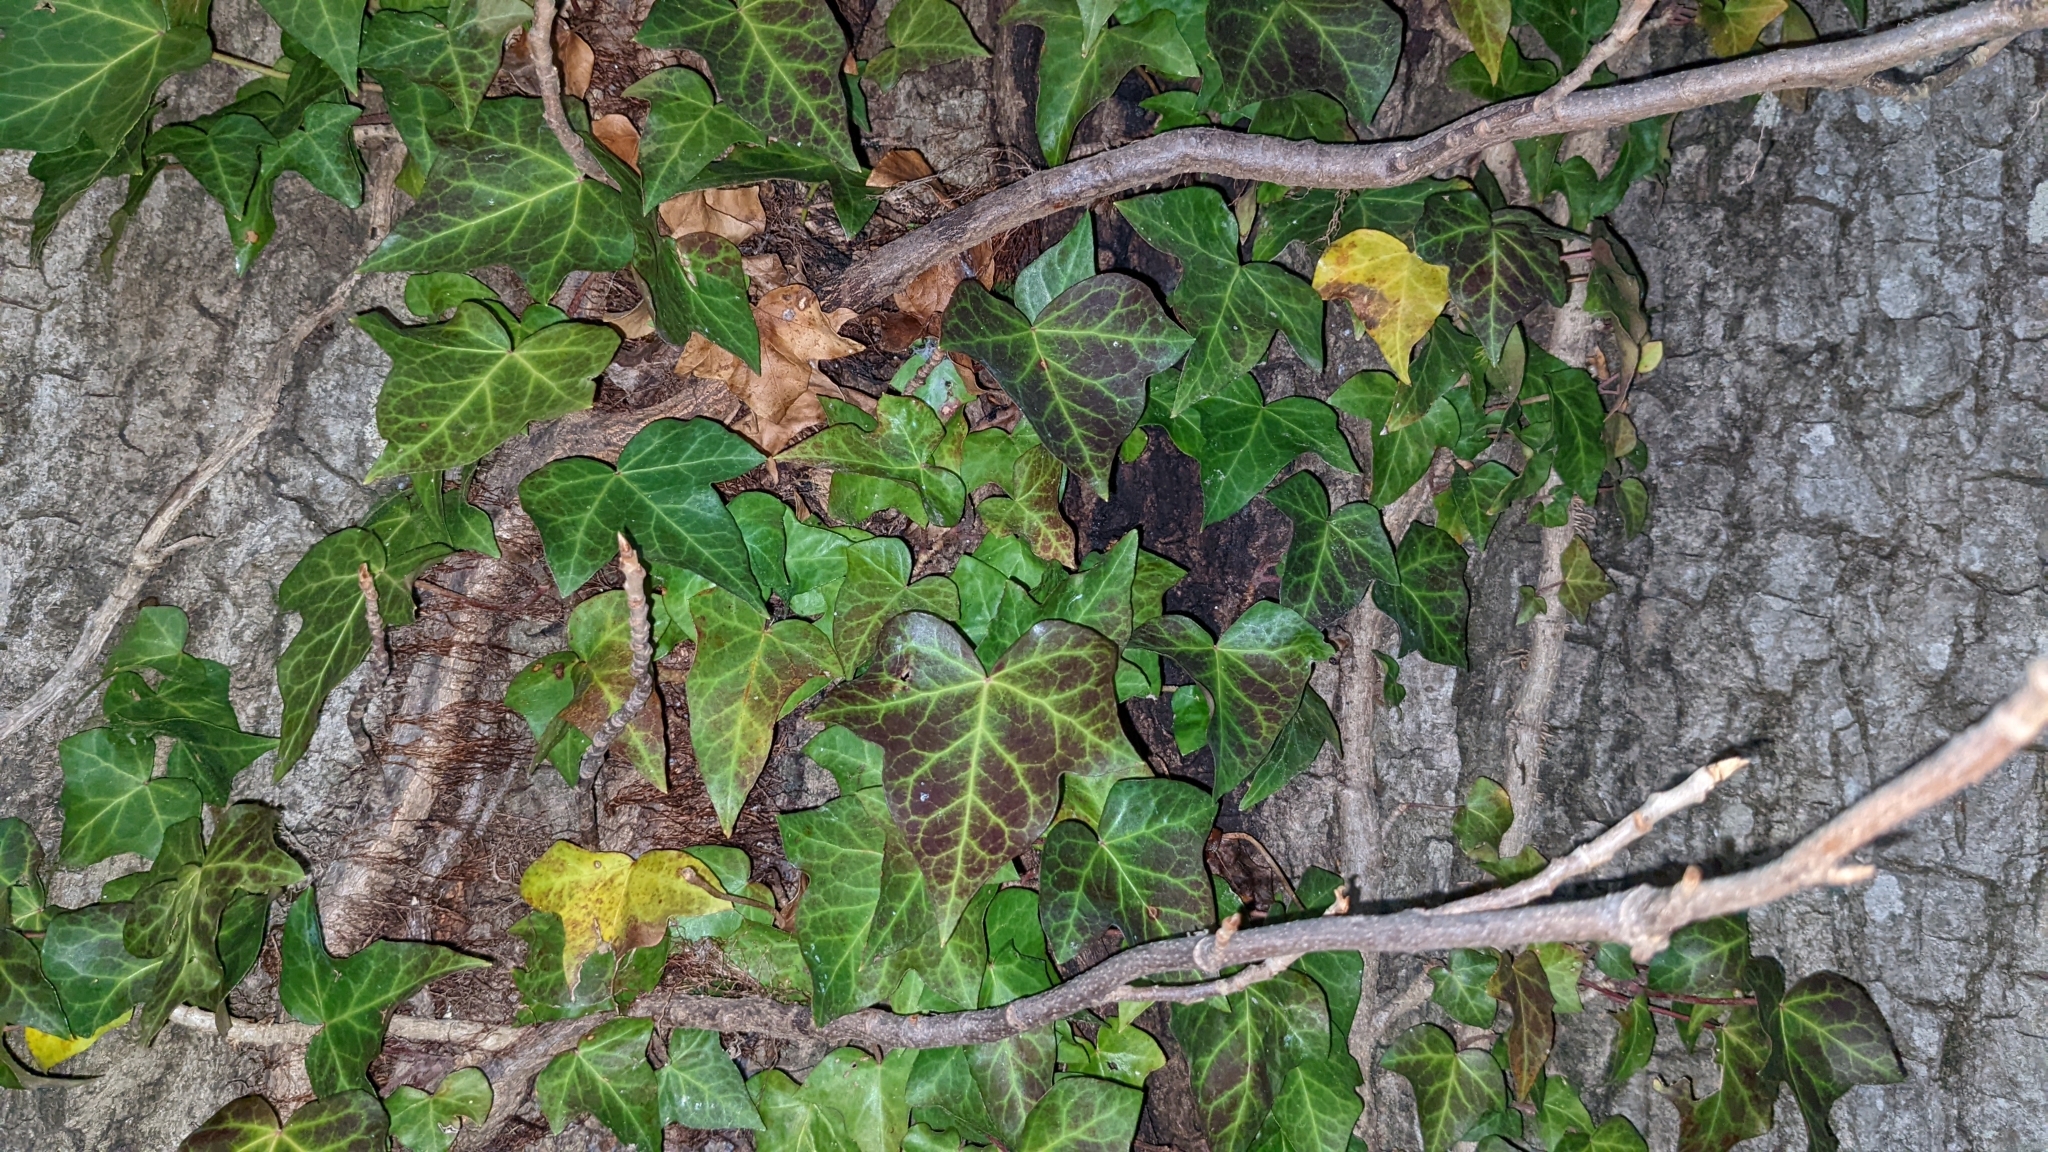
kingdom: Plantae
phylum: Tracheophyta
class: Magnoliopsida
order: Apiales
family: Araliaceae
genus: Hedera
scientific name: Hedera helix
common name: Ivy
